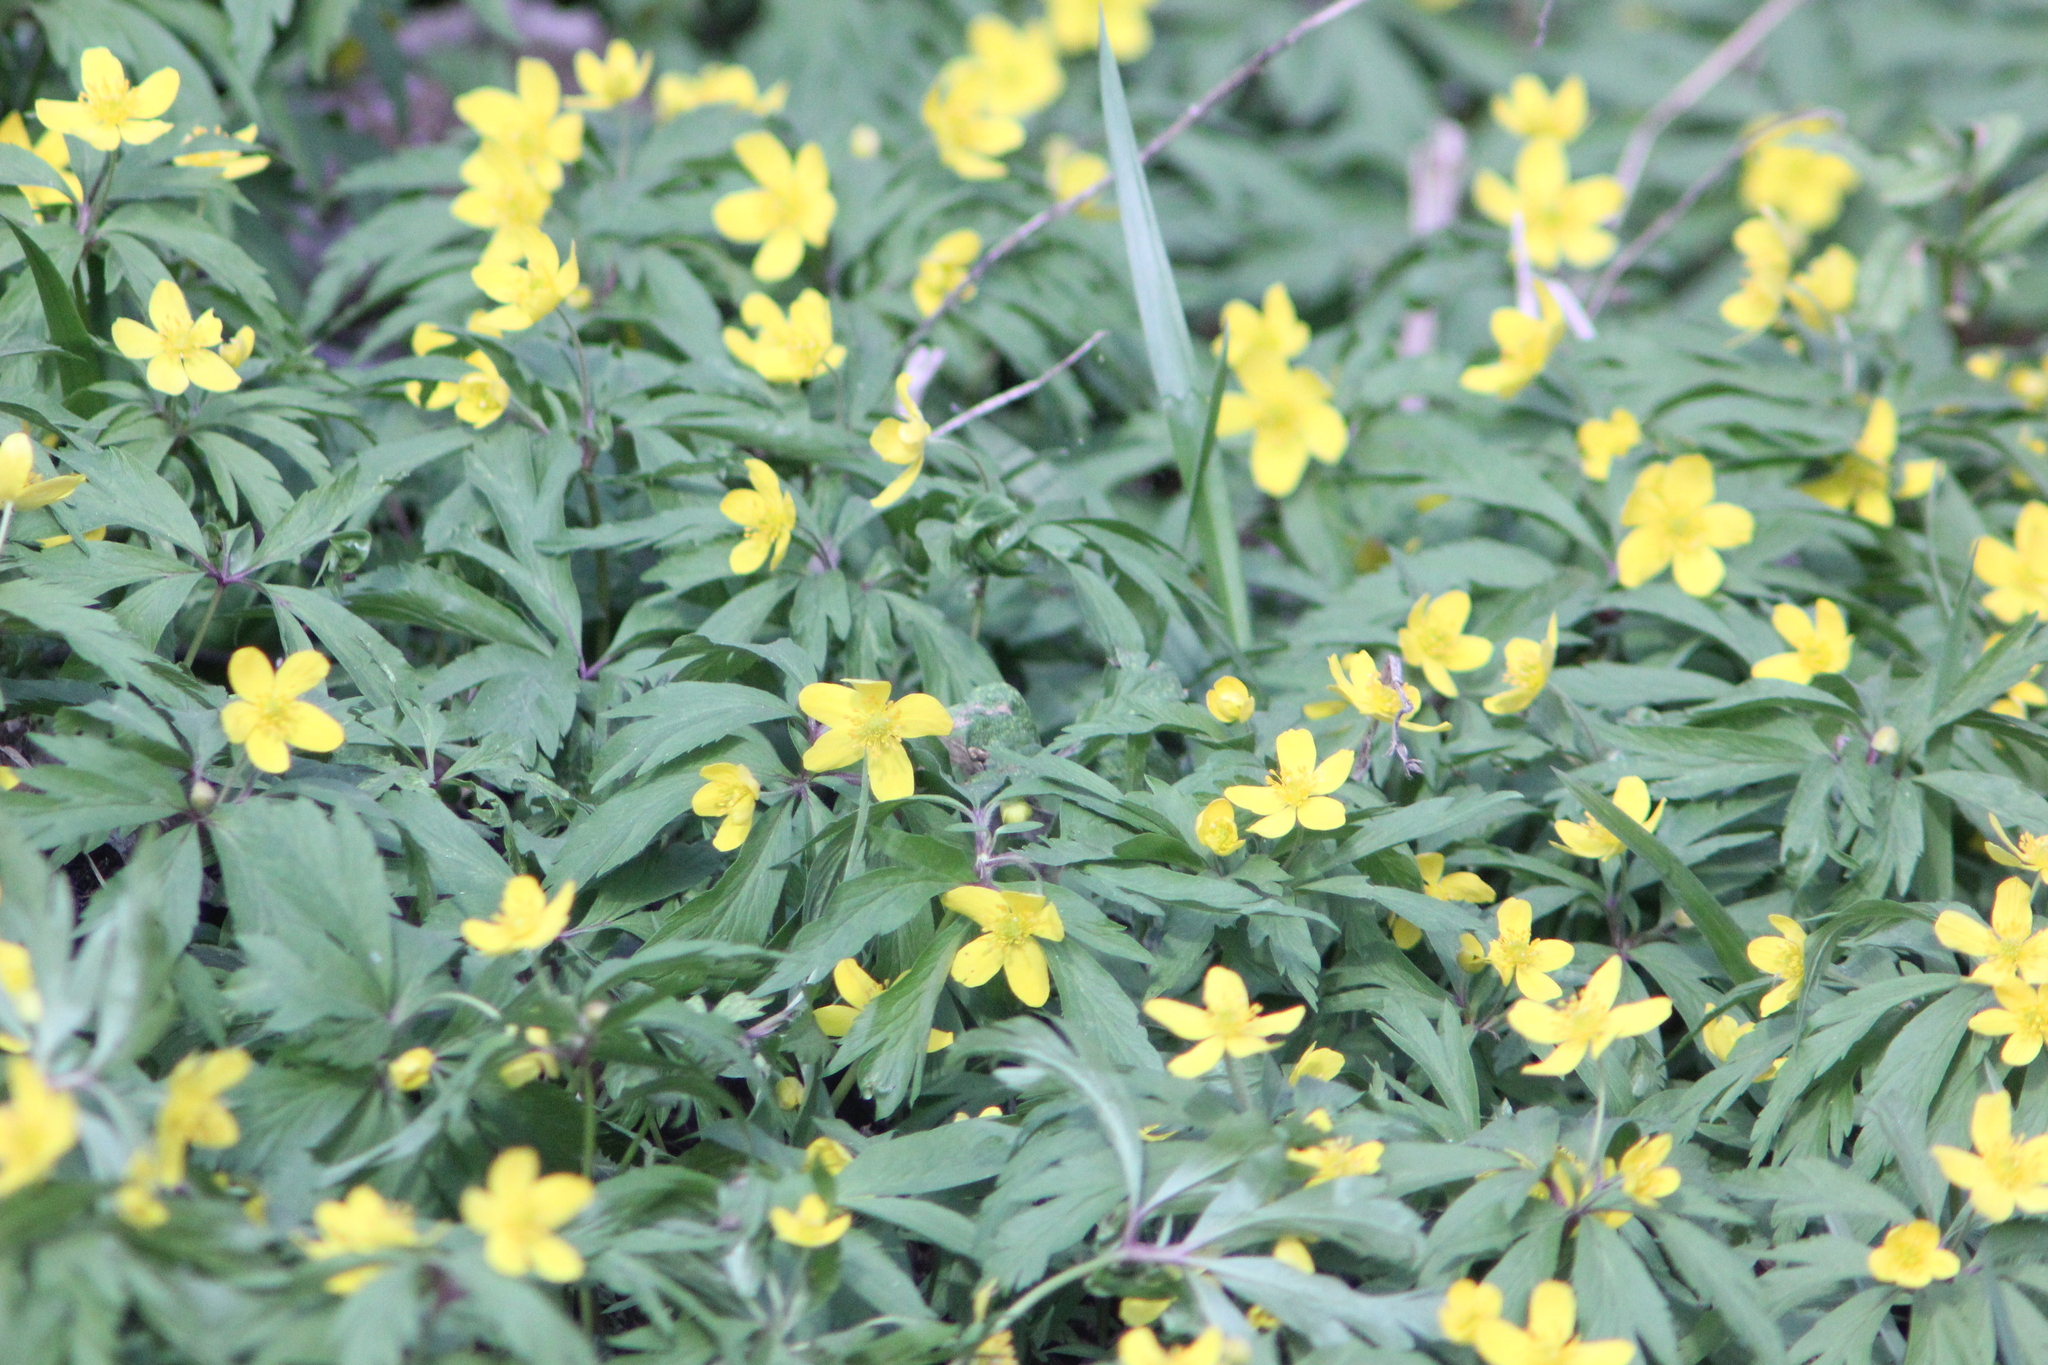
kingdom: Plantae
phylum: Tracheophyta
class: Magnoliopsida
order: Ranunculales
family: Ranunculaceae
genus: Anemone
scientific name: Anemone ranunculoides
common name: Yellow anemone
